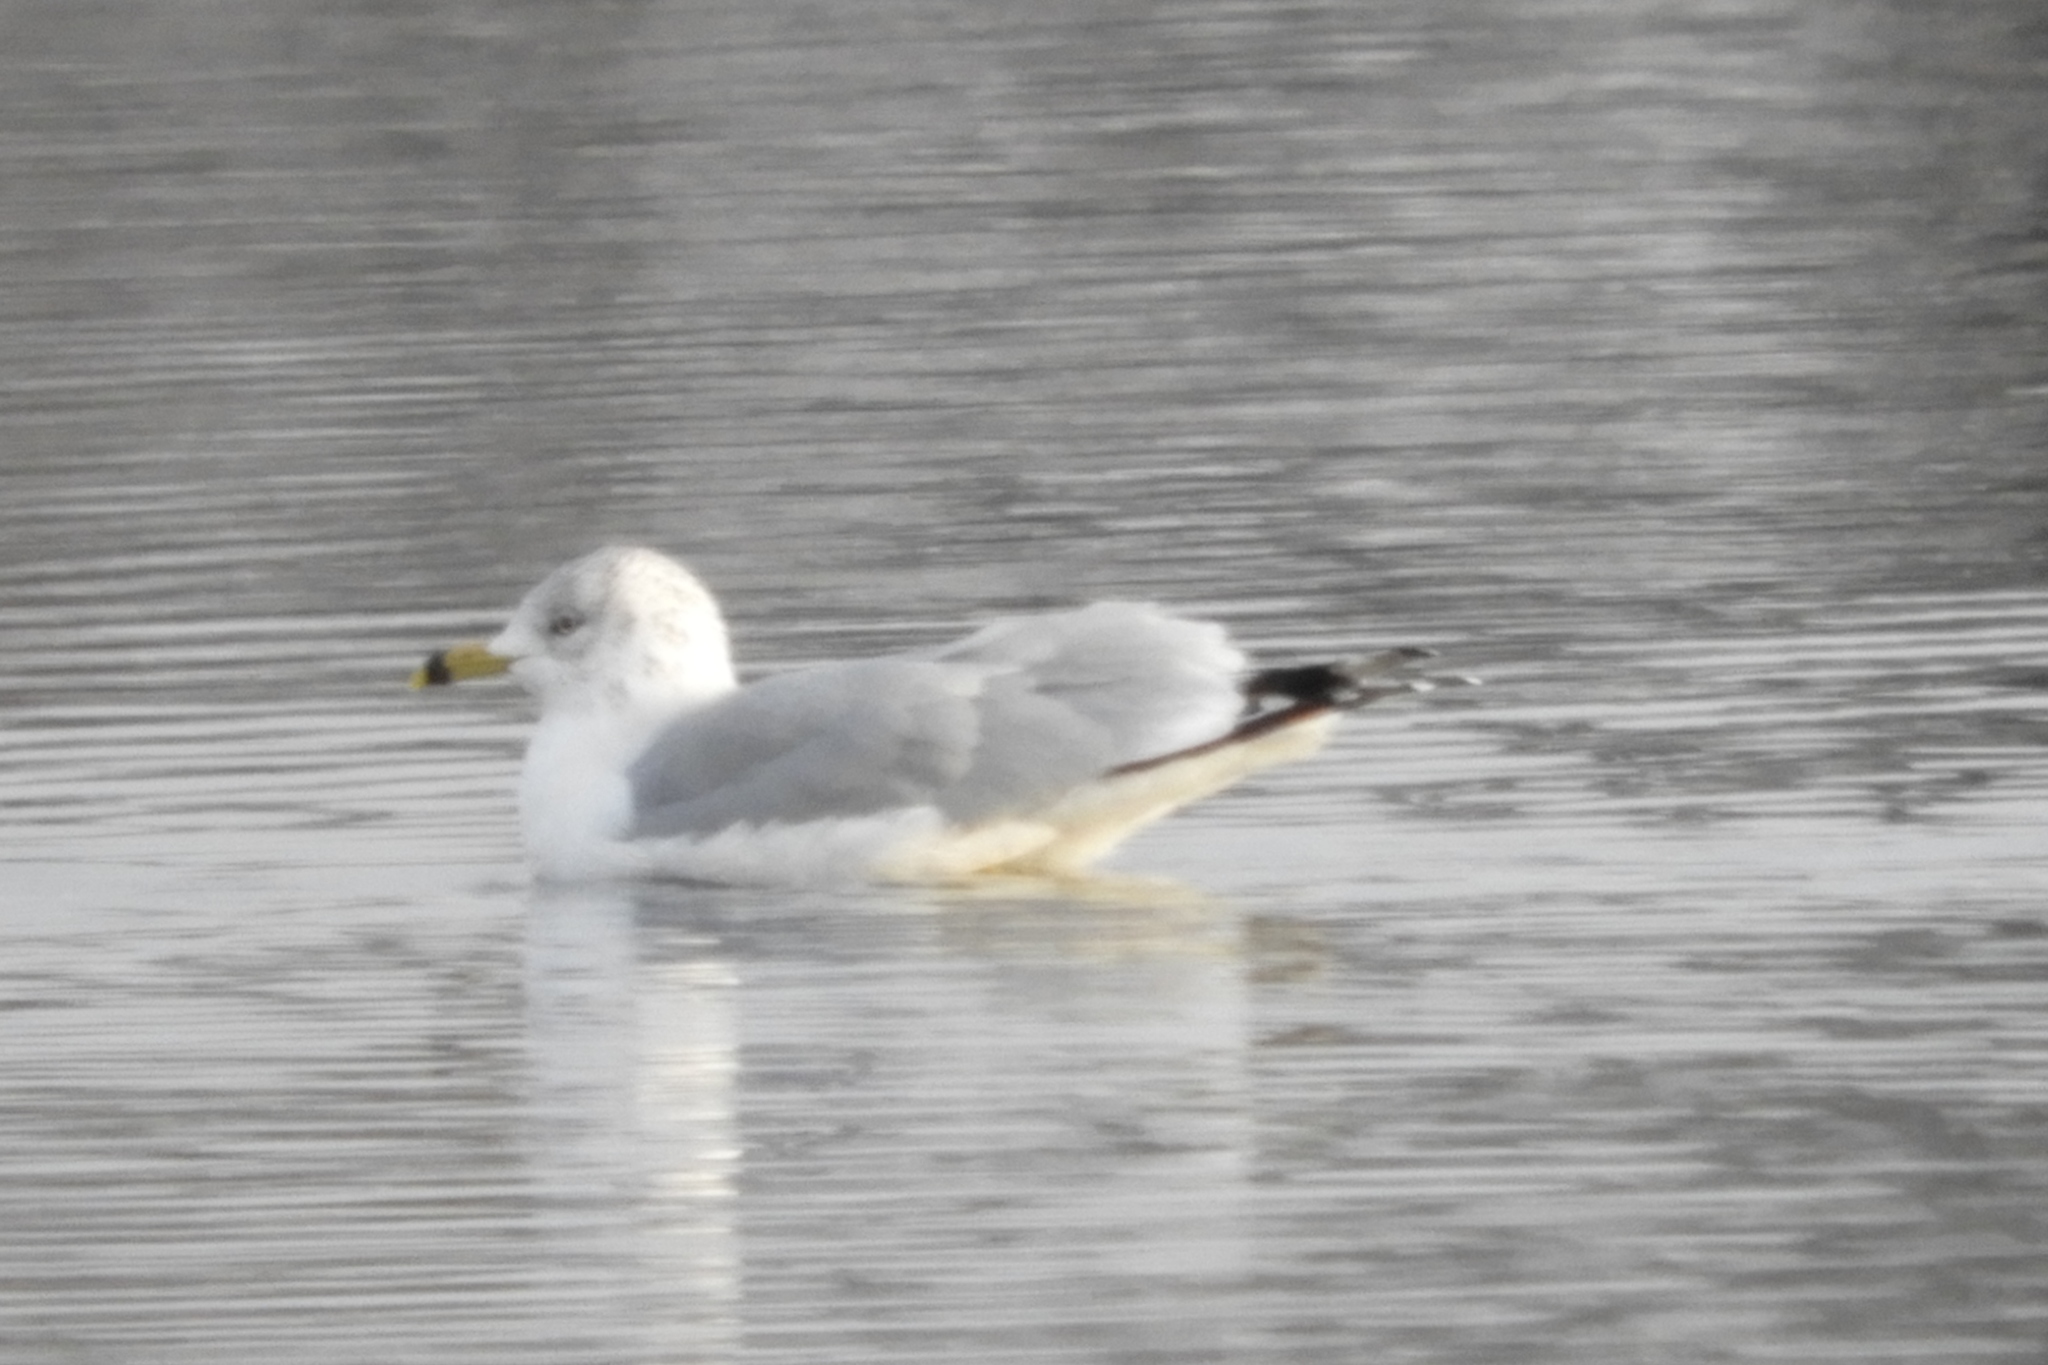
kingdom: Animalia
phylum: Chordata
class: Aves
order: Charadriiformes
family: Laridae
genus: Larus
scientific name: Larus delawarensis
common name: Ring-billed gull
